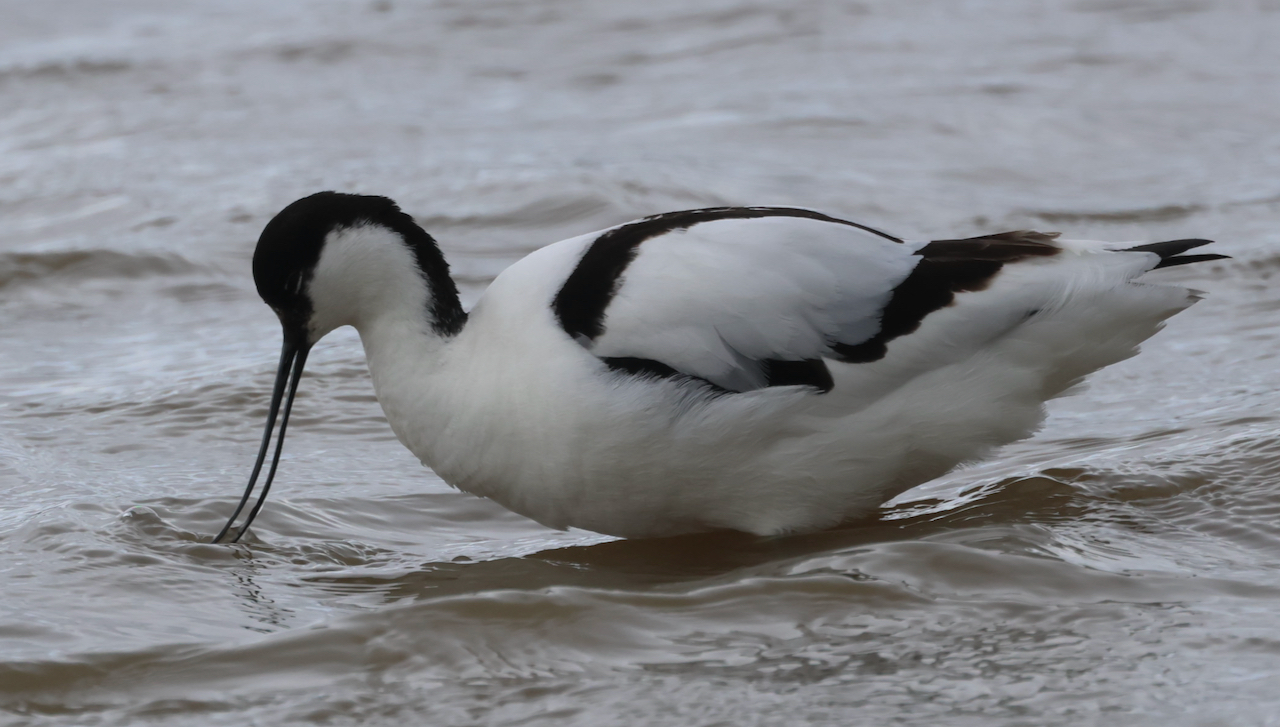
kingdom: Animalia
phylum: Chordata
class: Aves
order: Charadriiformes
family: Recurvirostridae
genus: Recurvirostra
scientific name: Recurvirostra avosetta
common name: Pied avocet
